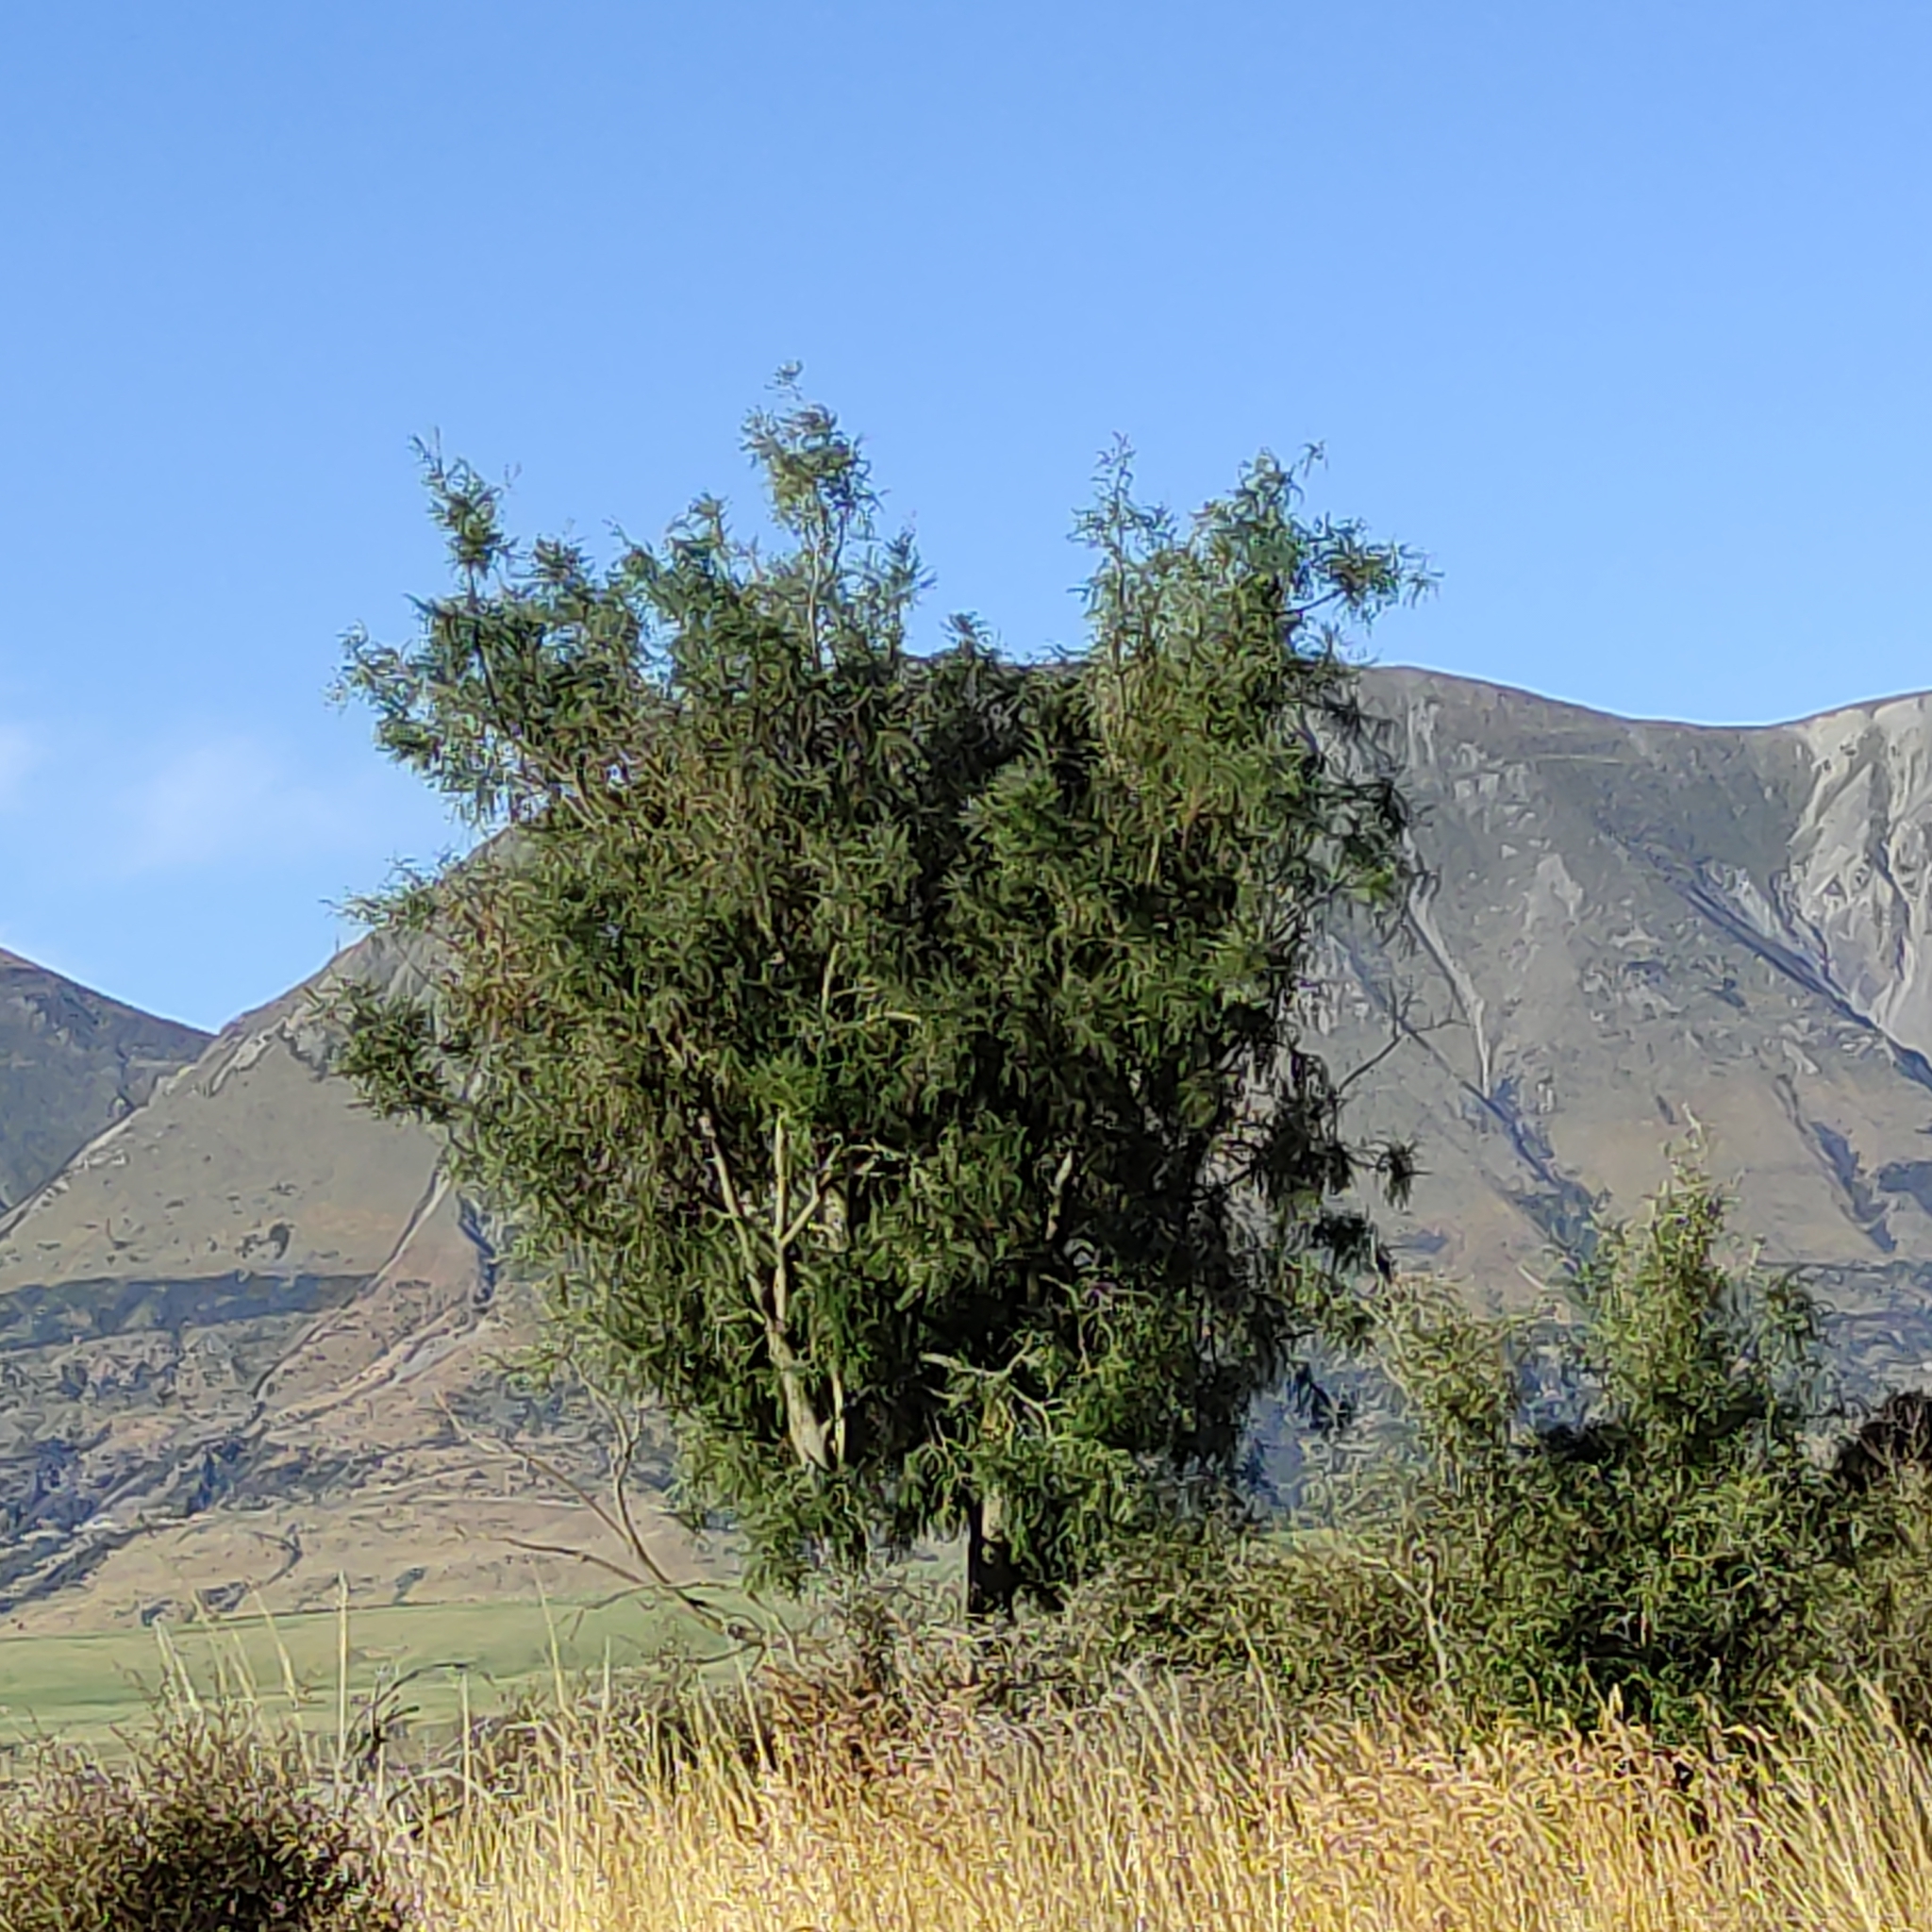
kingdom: Plantae
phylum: Tracheophyta
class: Magnoliopsida
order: Fabales
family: Fabaceae
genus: Sophora
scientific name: Sophora microphylla
